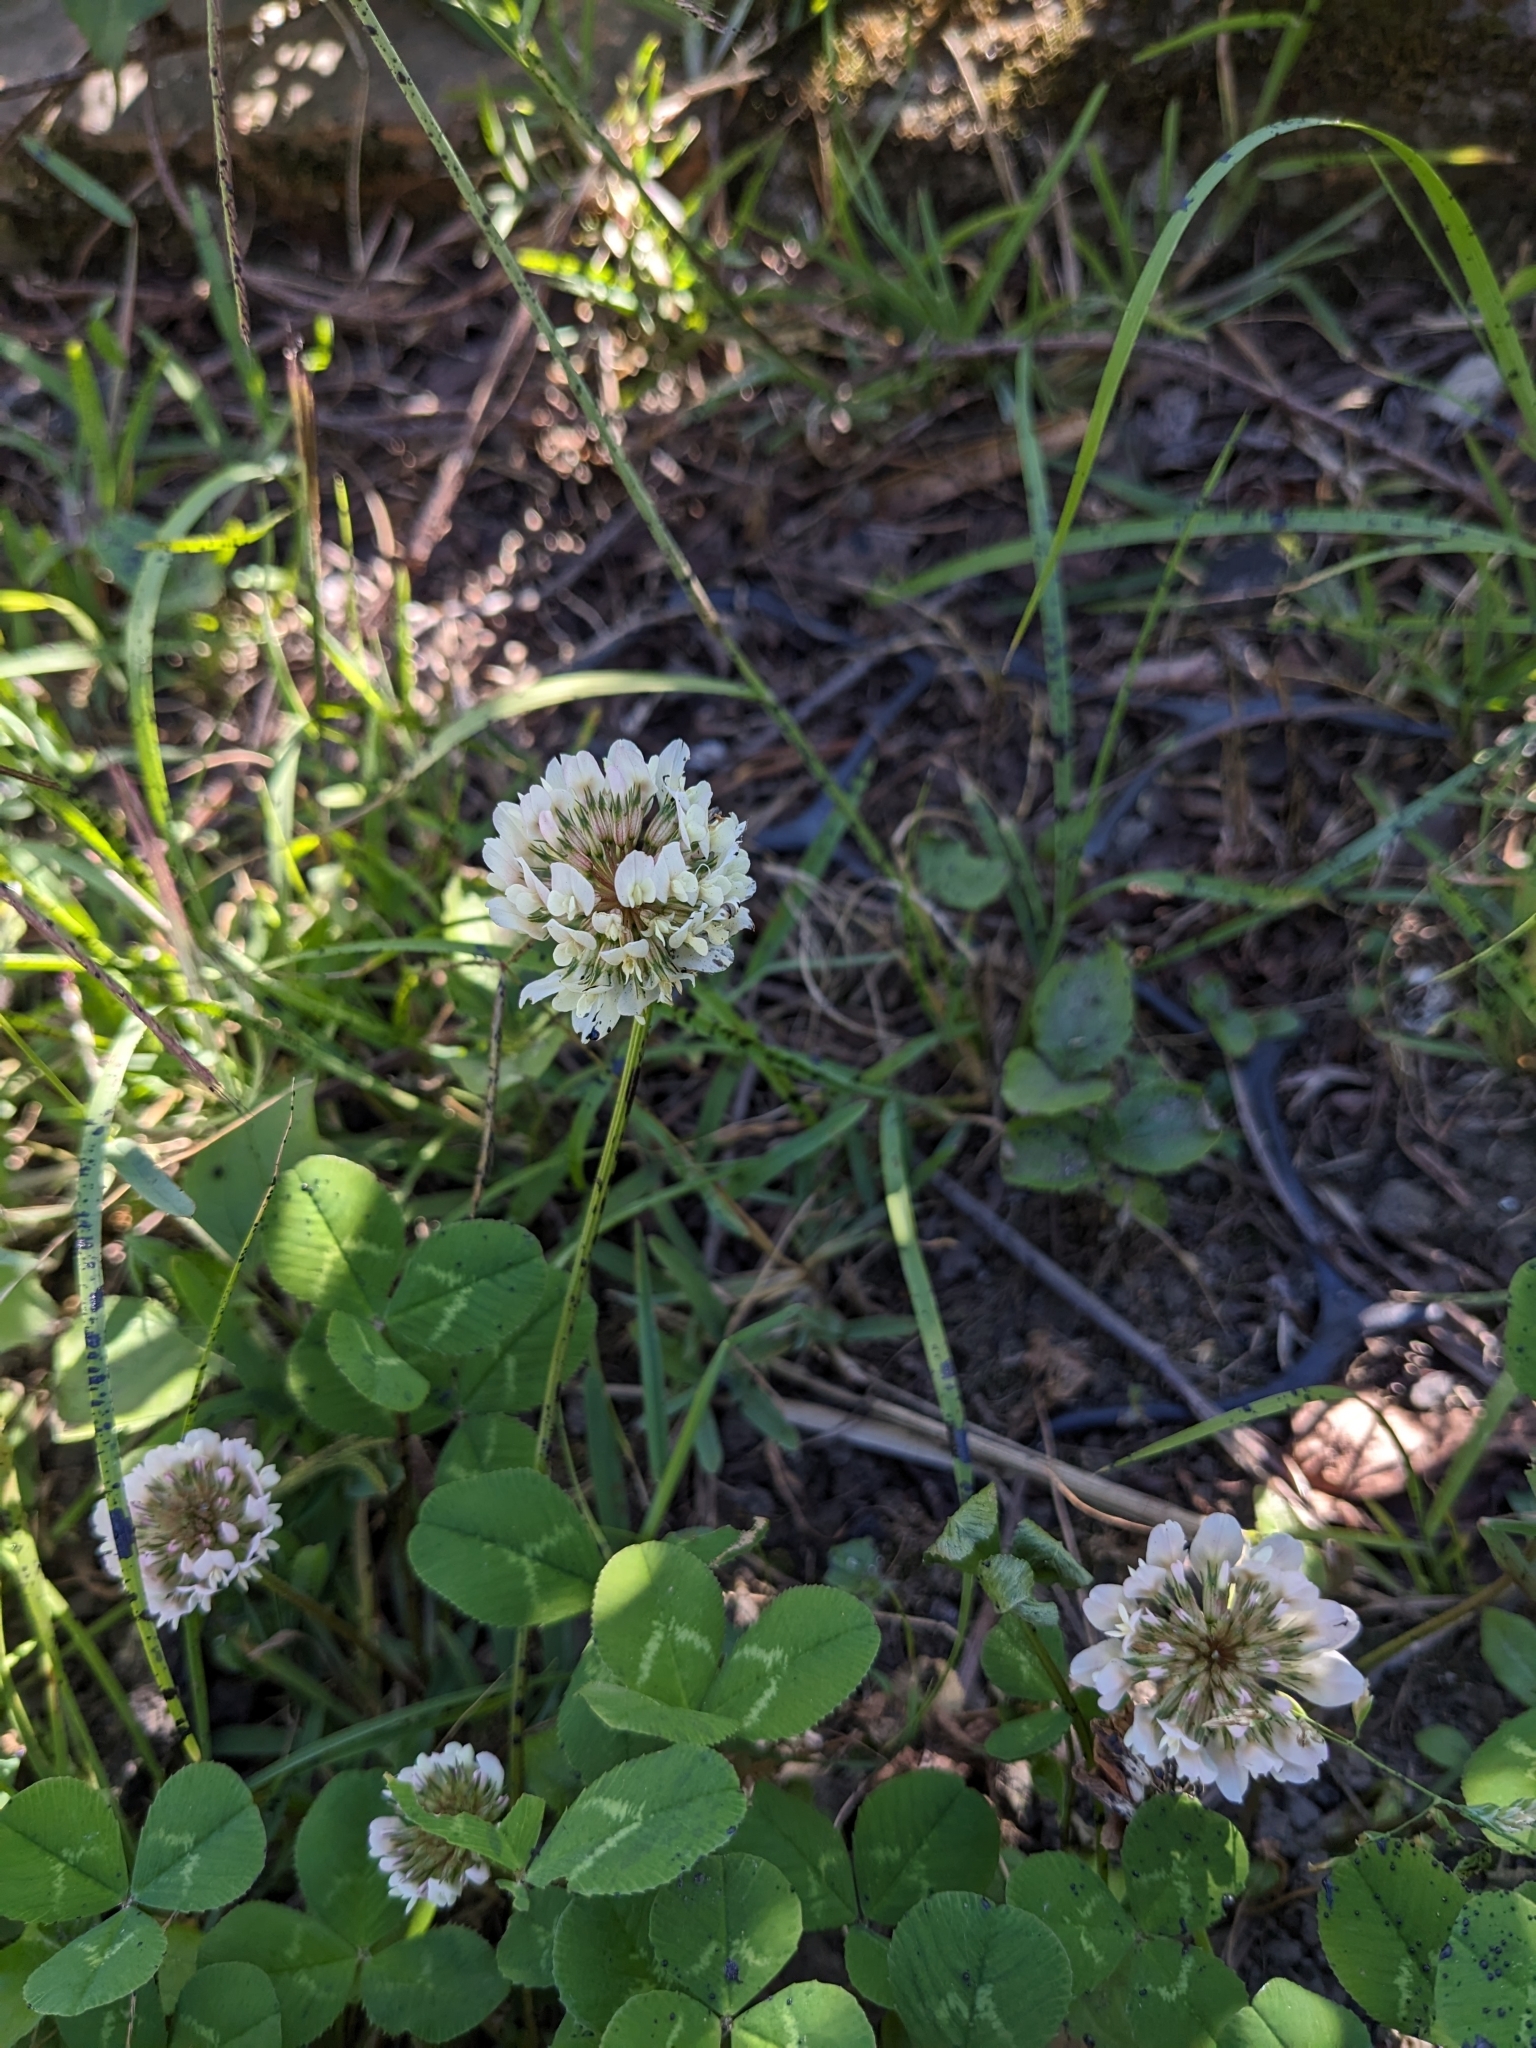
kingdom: Plantae
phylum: Tracheophyta
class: Magnoliopsida
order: Fabales
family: Fabaceae
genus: Trifolium
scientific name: Trifolium repens
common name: White clover
